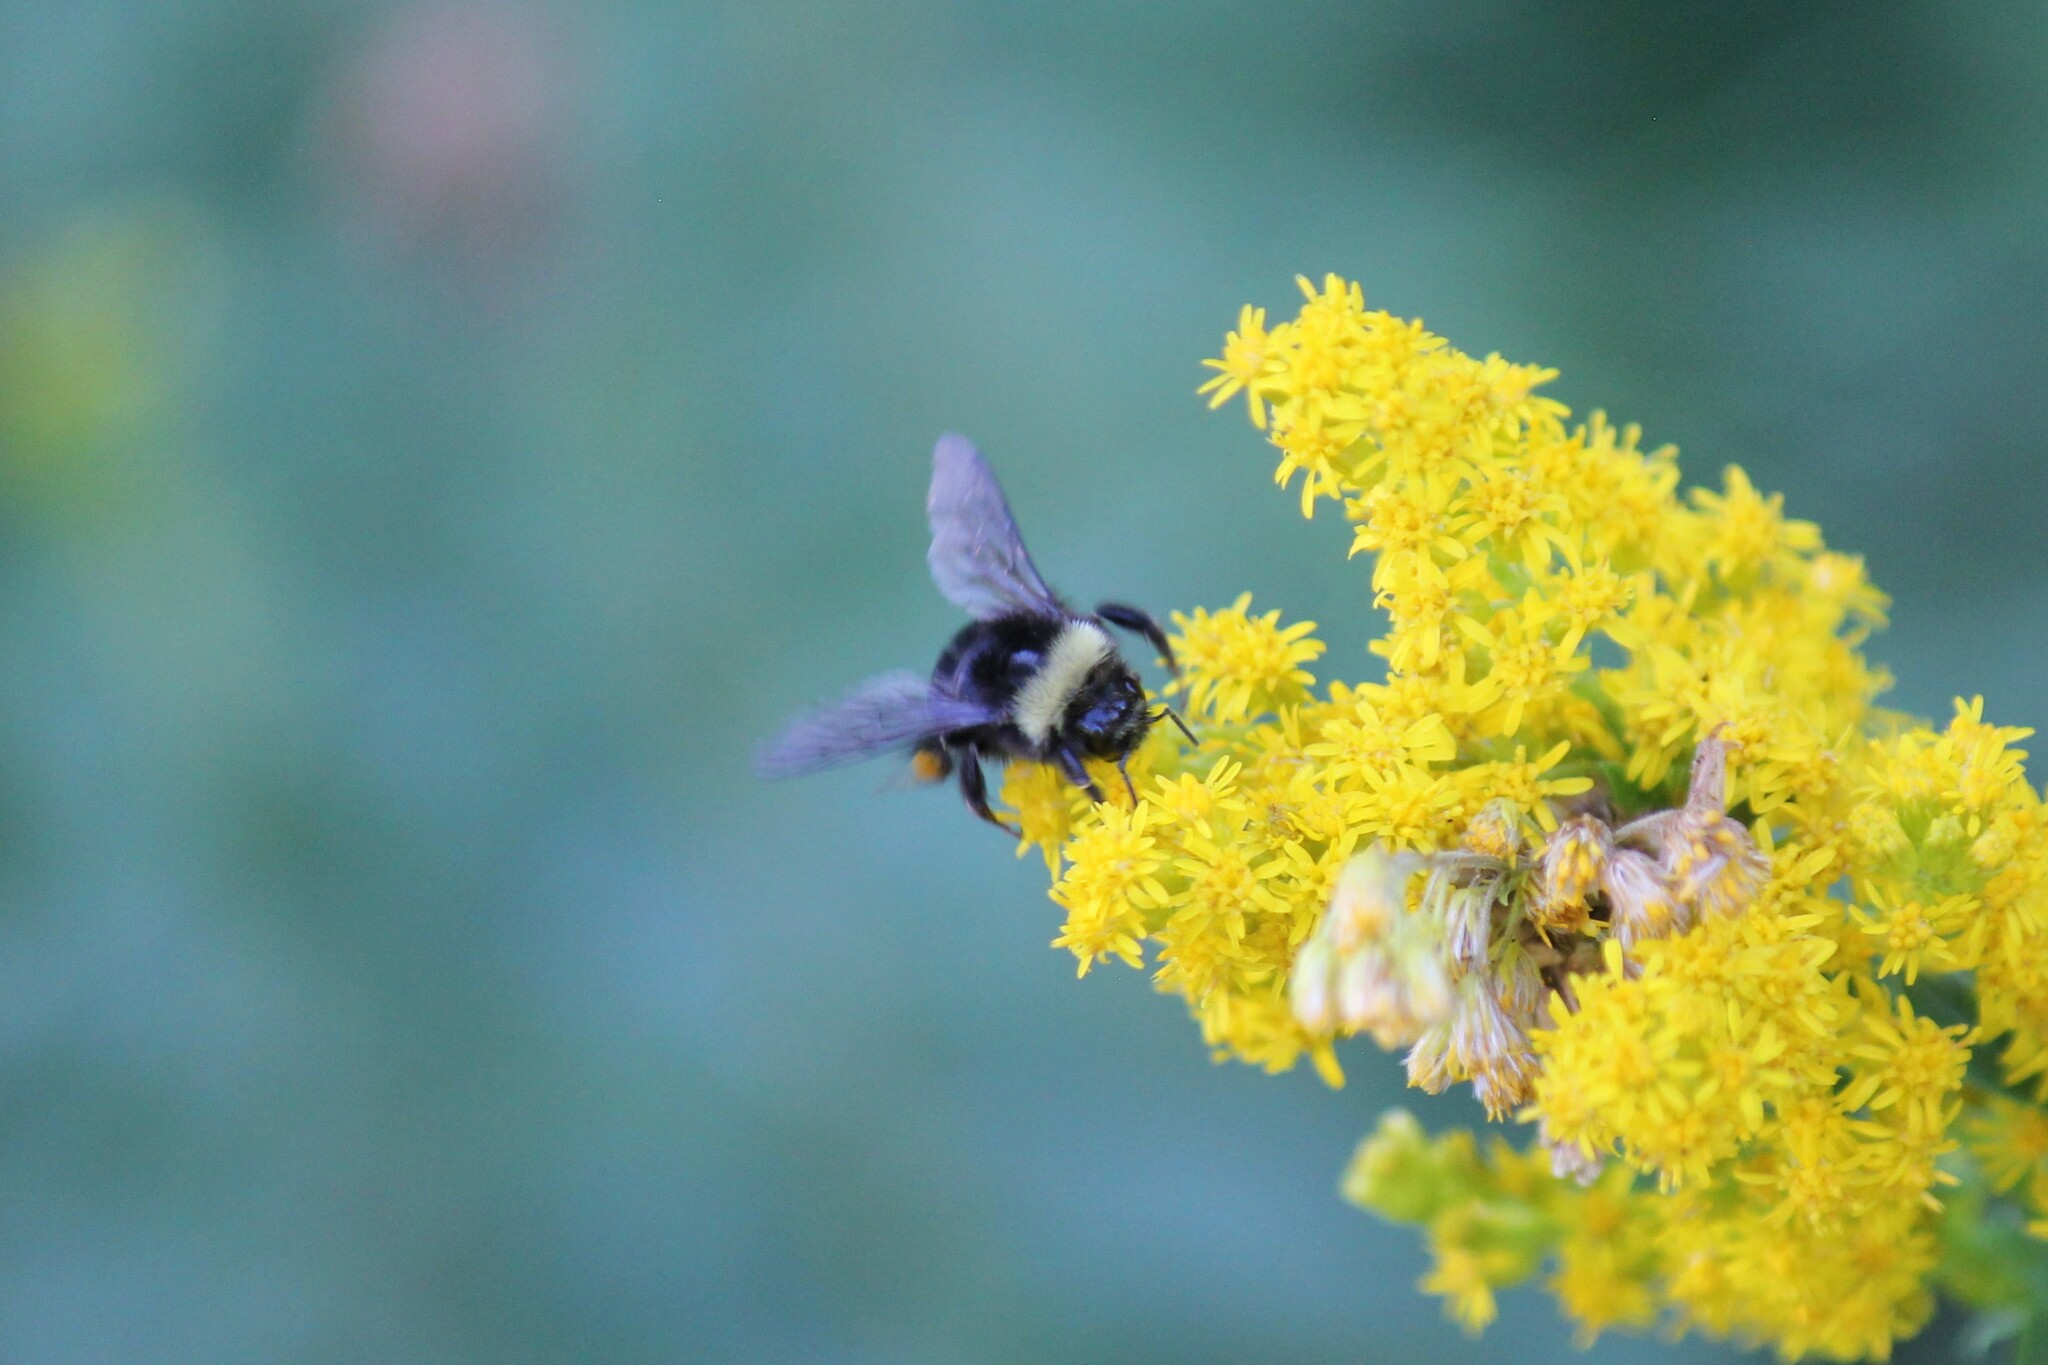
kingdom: Animalia
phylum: Arthropoda
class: Insecta
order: Hymenoptera
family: Apidae
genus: Bombus
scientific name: Bombus occidentalis
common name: Western bumble bee
